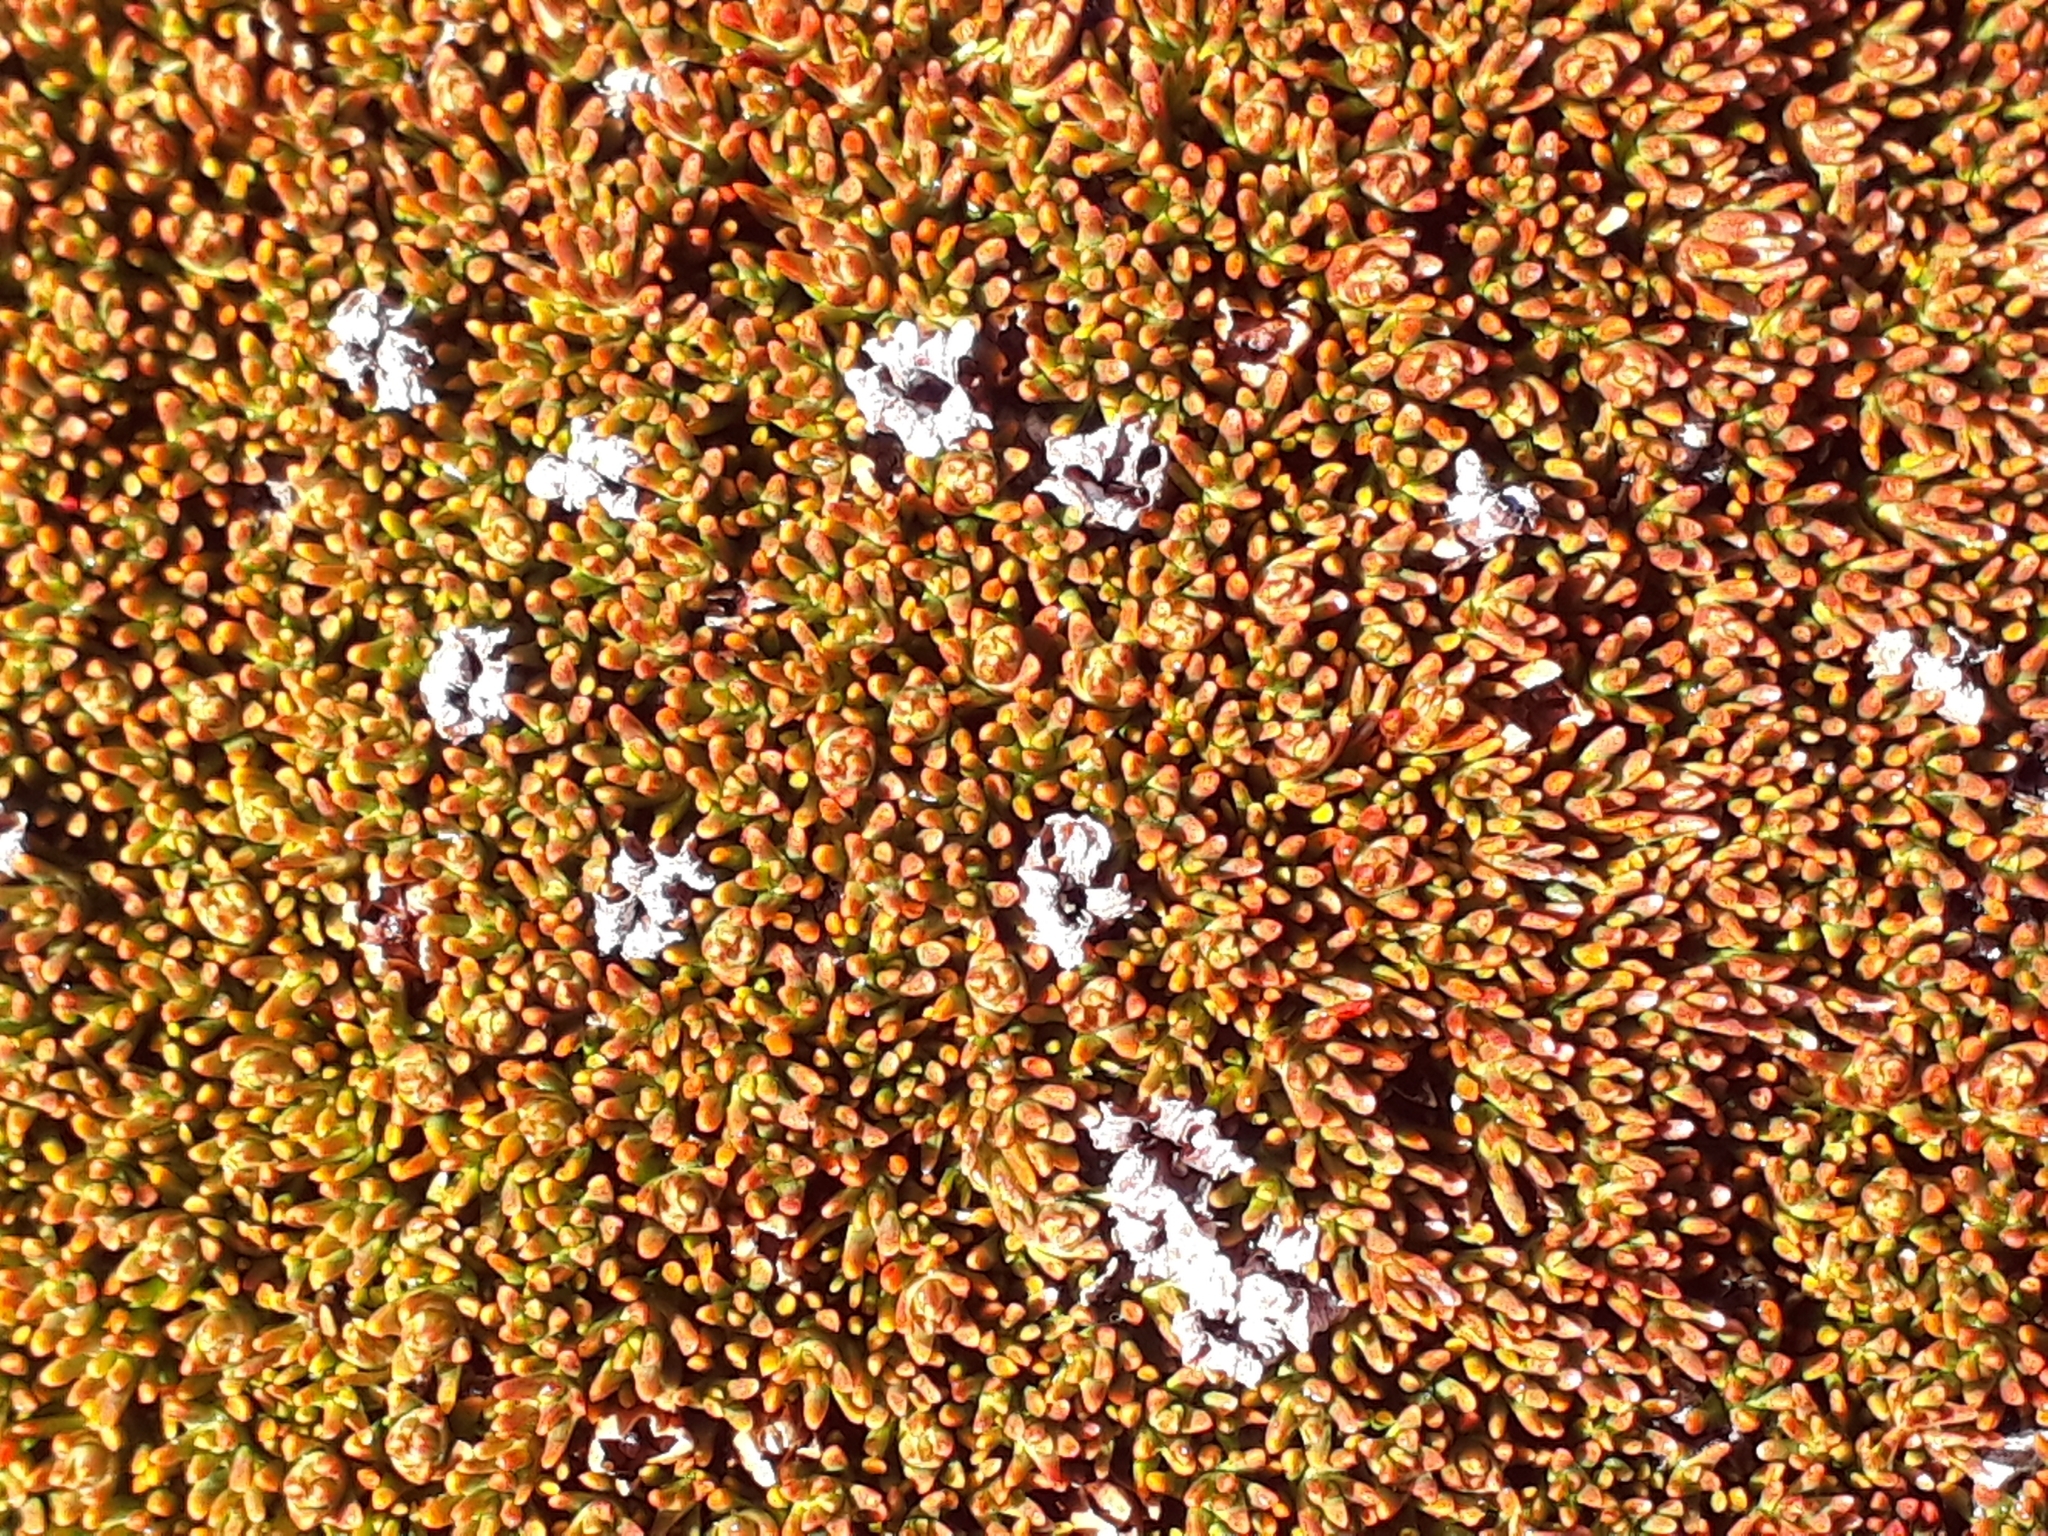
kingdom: Plantae
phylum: Tracheophyta
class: Magnoliopsida
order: Ericales
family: Ericaceae
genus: Dracophyllum
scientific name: Dracophyllum muscoides
